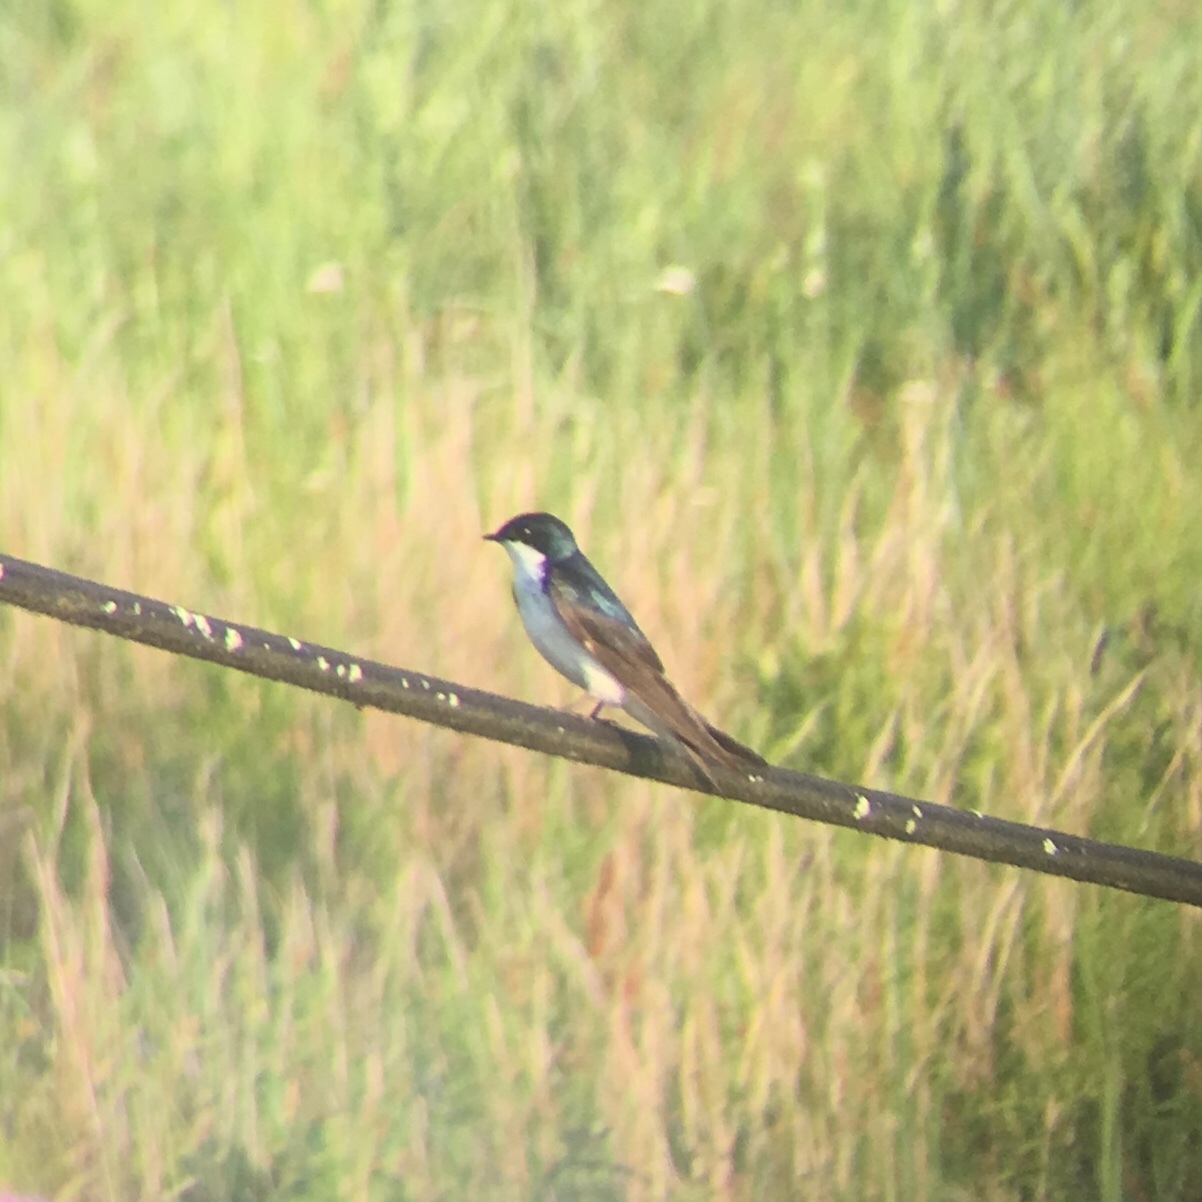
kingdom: Animalia
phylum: Chordata
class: Aves
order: Passeriformes
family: Hirundinidae
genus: Tachycineta
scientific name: Tachycineta bicolor
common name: Tree swallow
